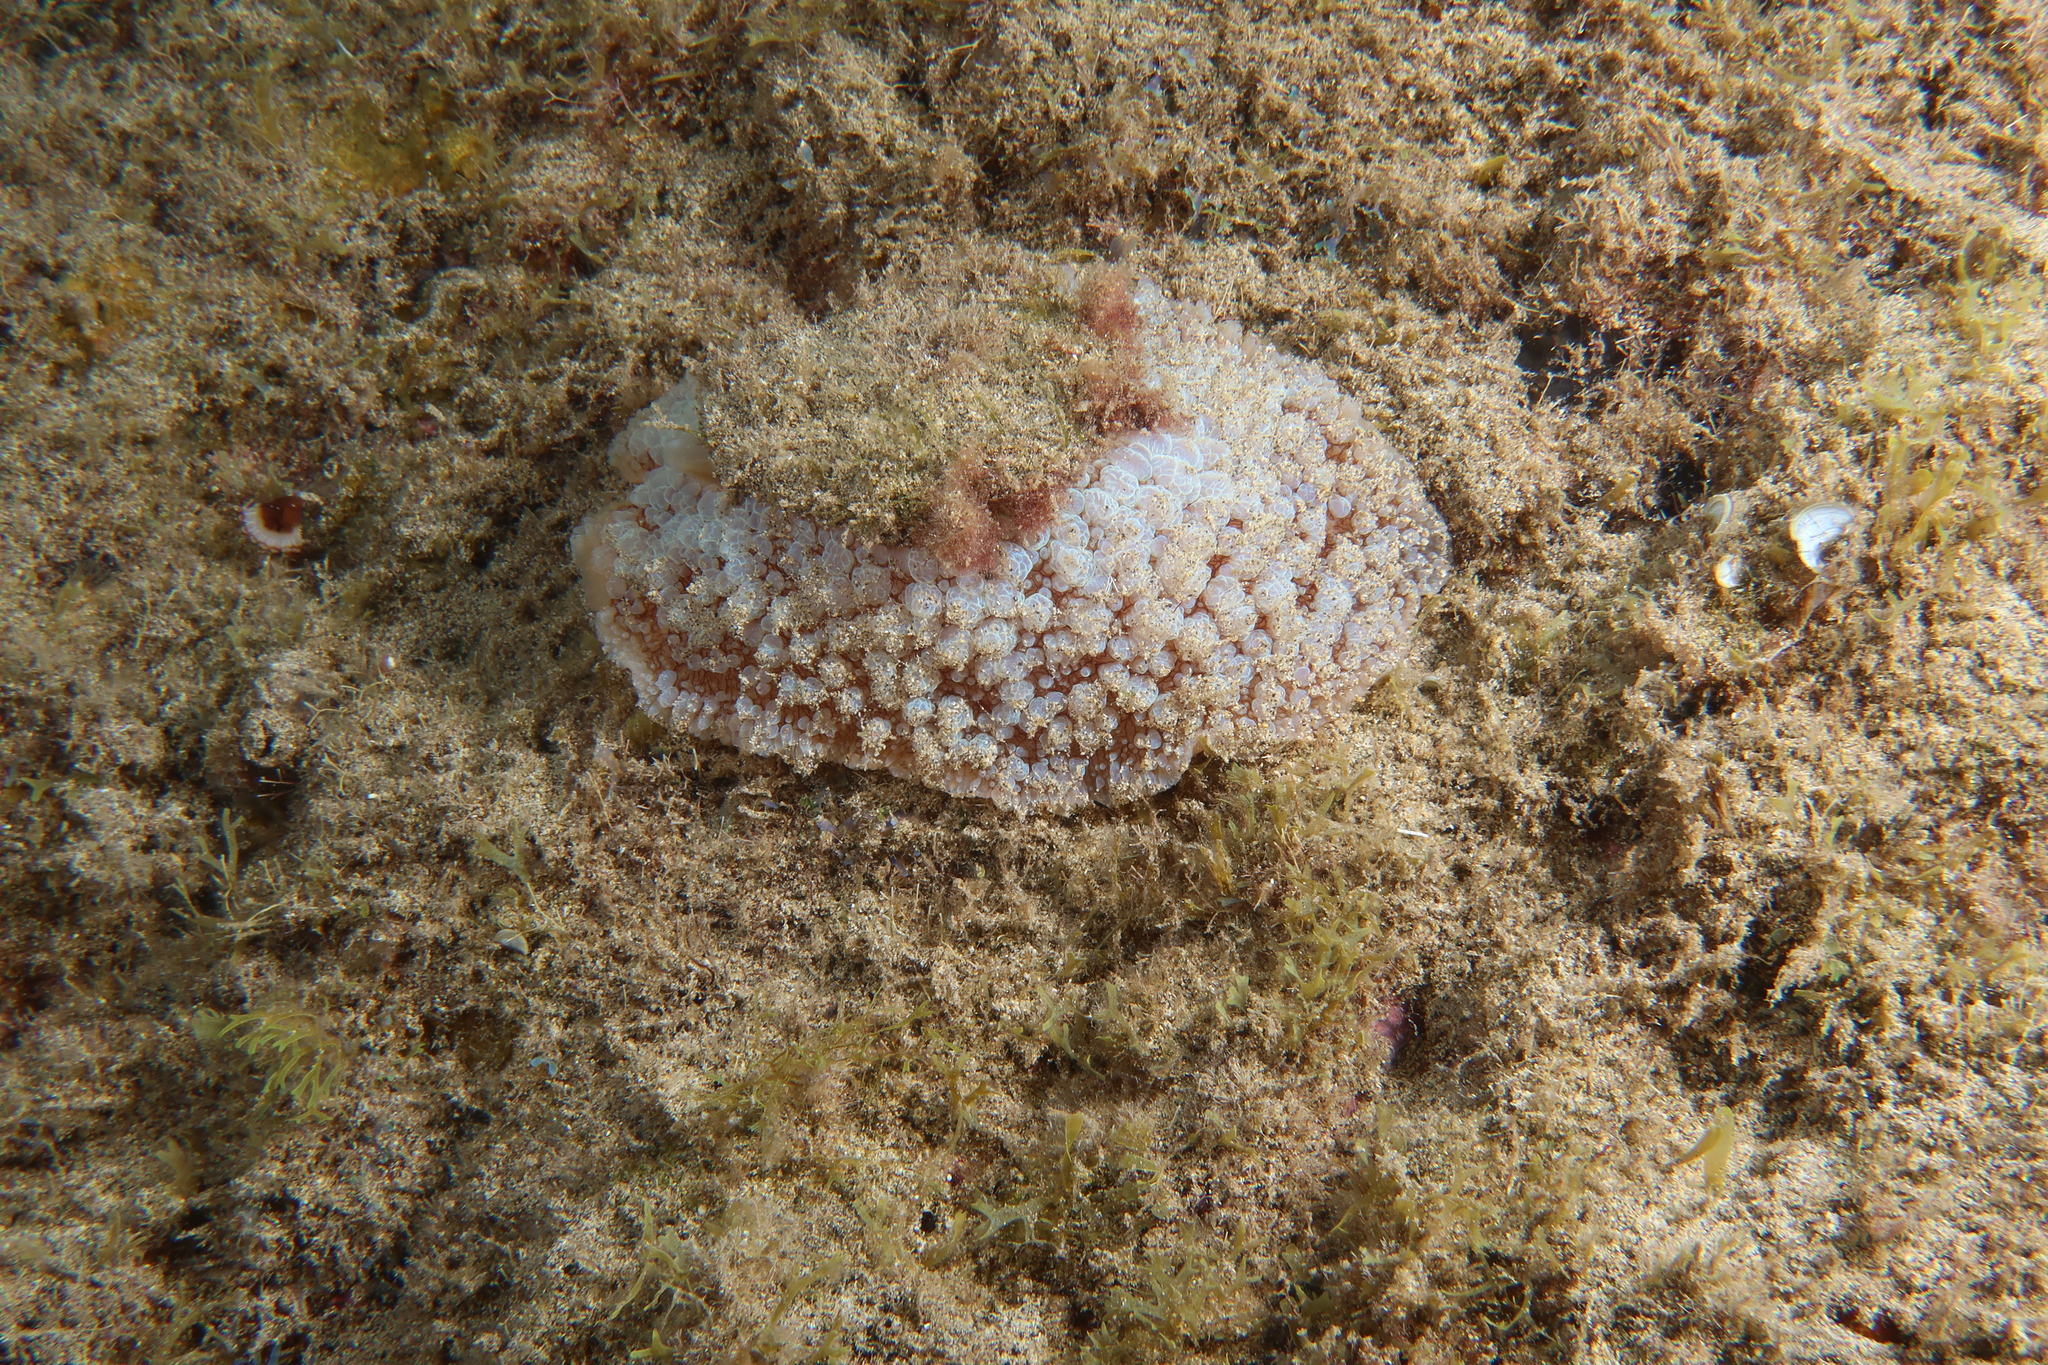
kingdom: Animalia
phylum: Mollusca
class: Gastropoda
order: Umbraculida
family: Umbraculidae
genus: Umbraculum
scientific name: Umbraculum umbraculum
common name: Atlantic umbrella slug
